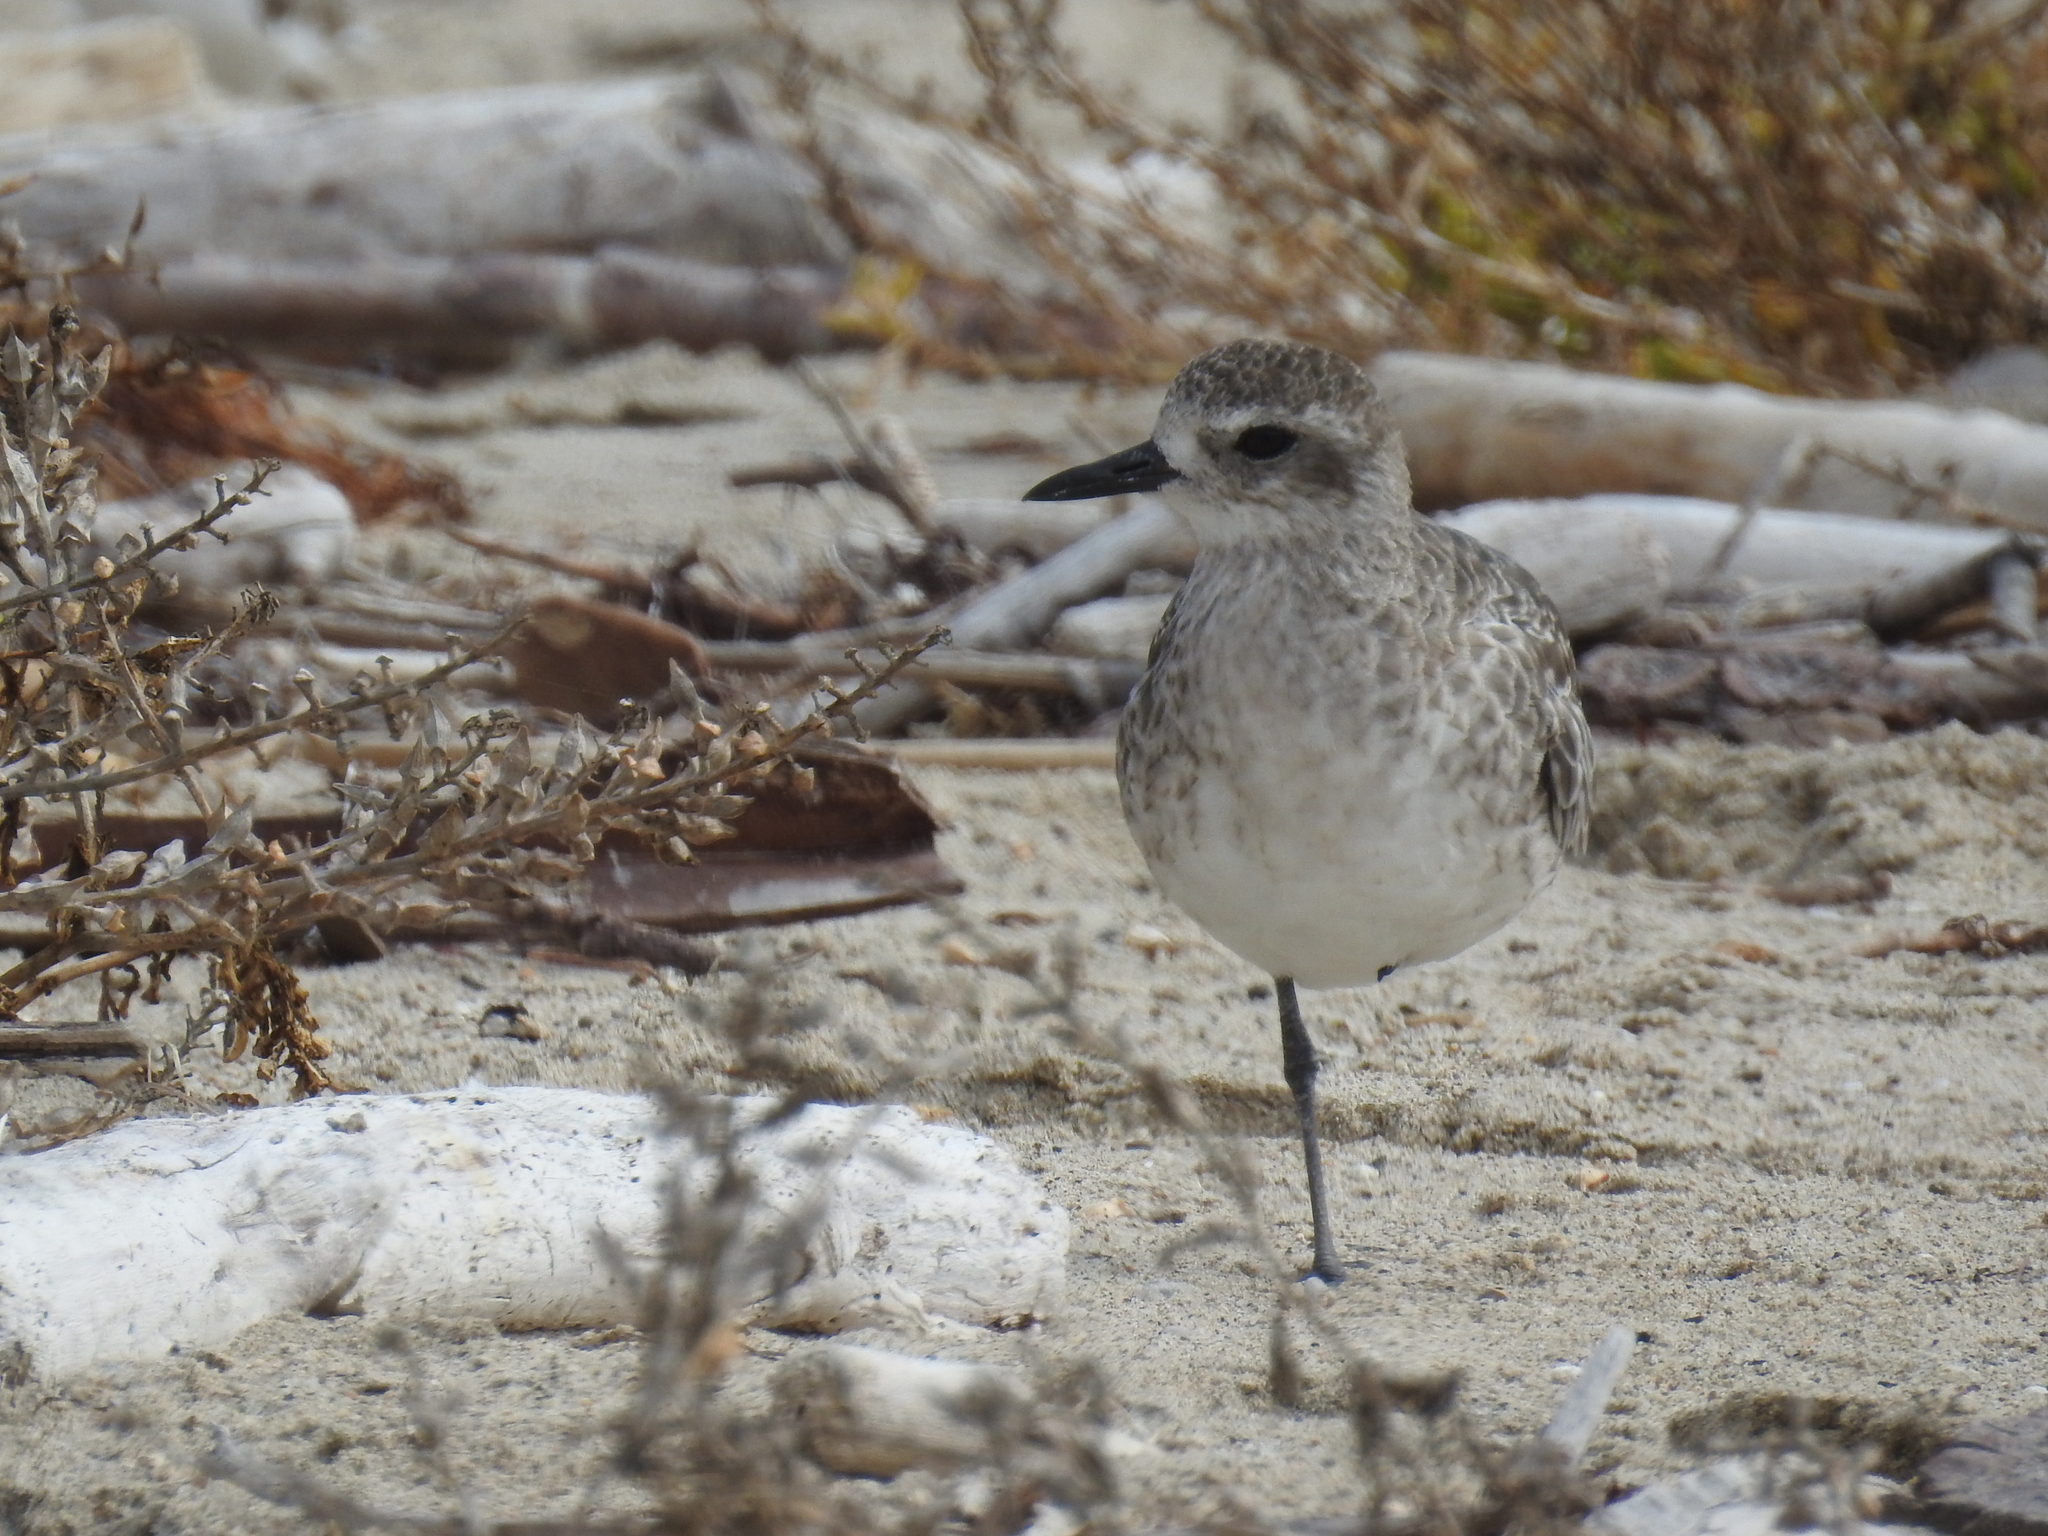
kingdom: Animalia
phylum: Chordata
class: Aves
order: Charadriiformes
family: Charadriidae
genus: Pluvialis
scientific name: Pluvialis squatarola
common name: Grey plover
